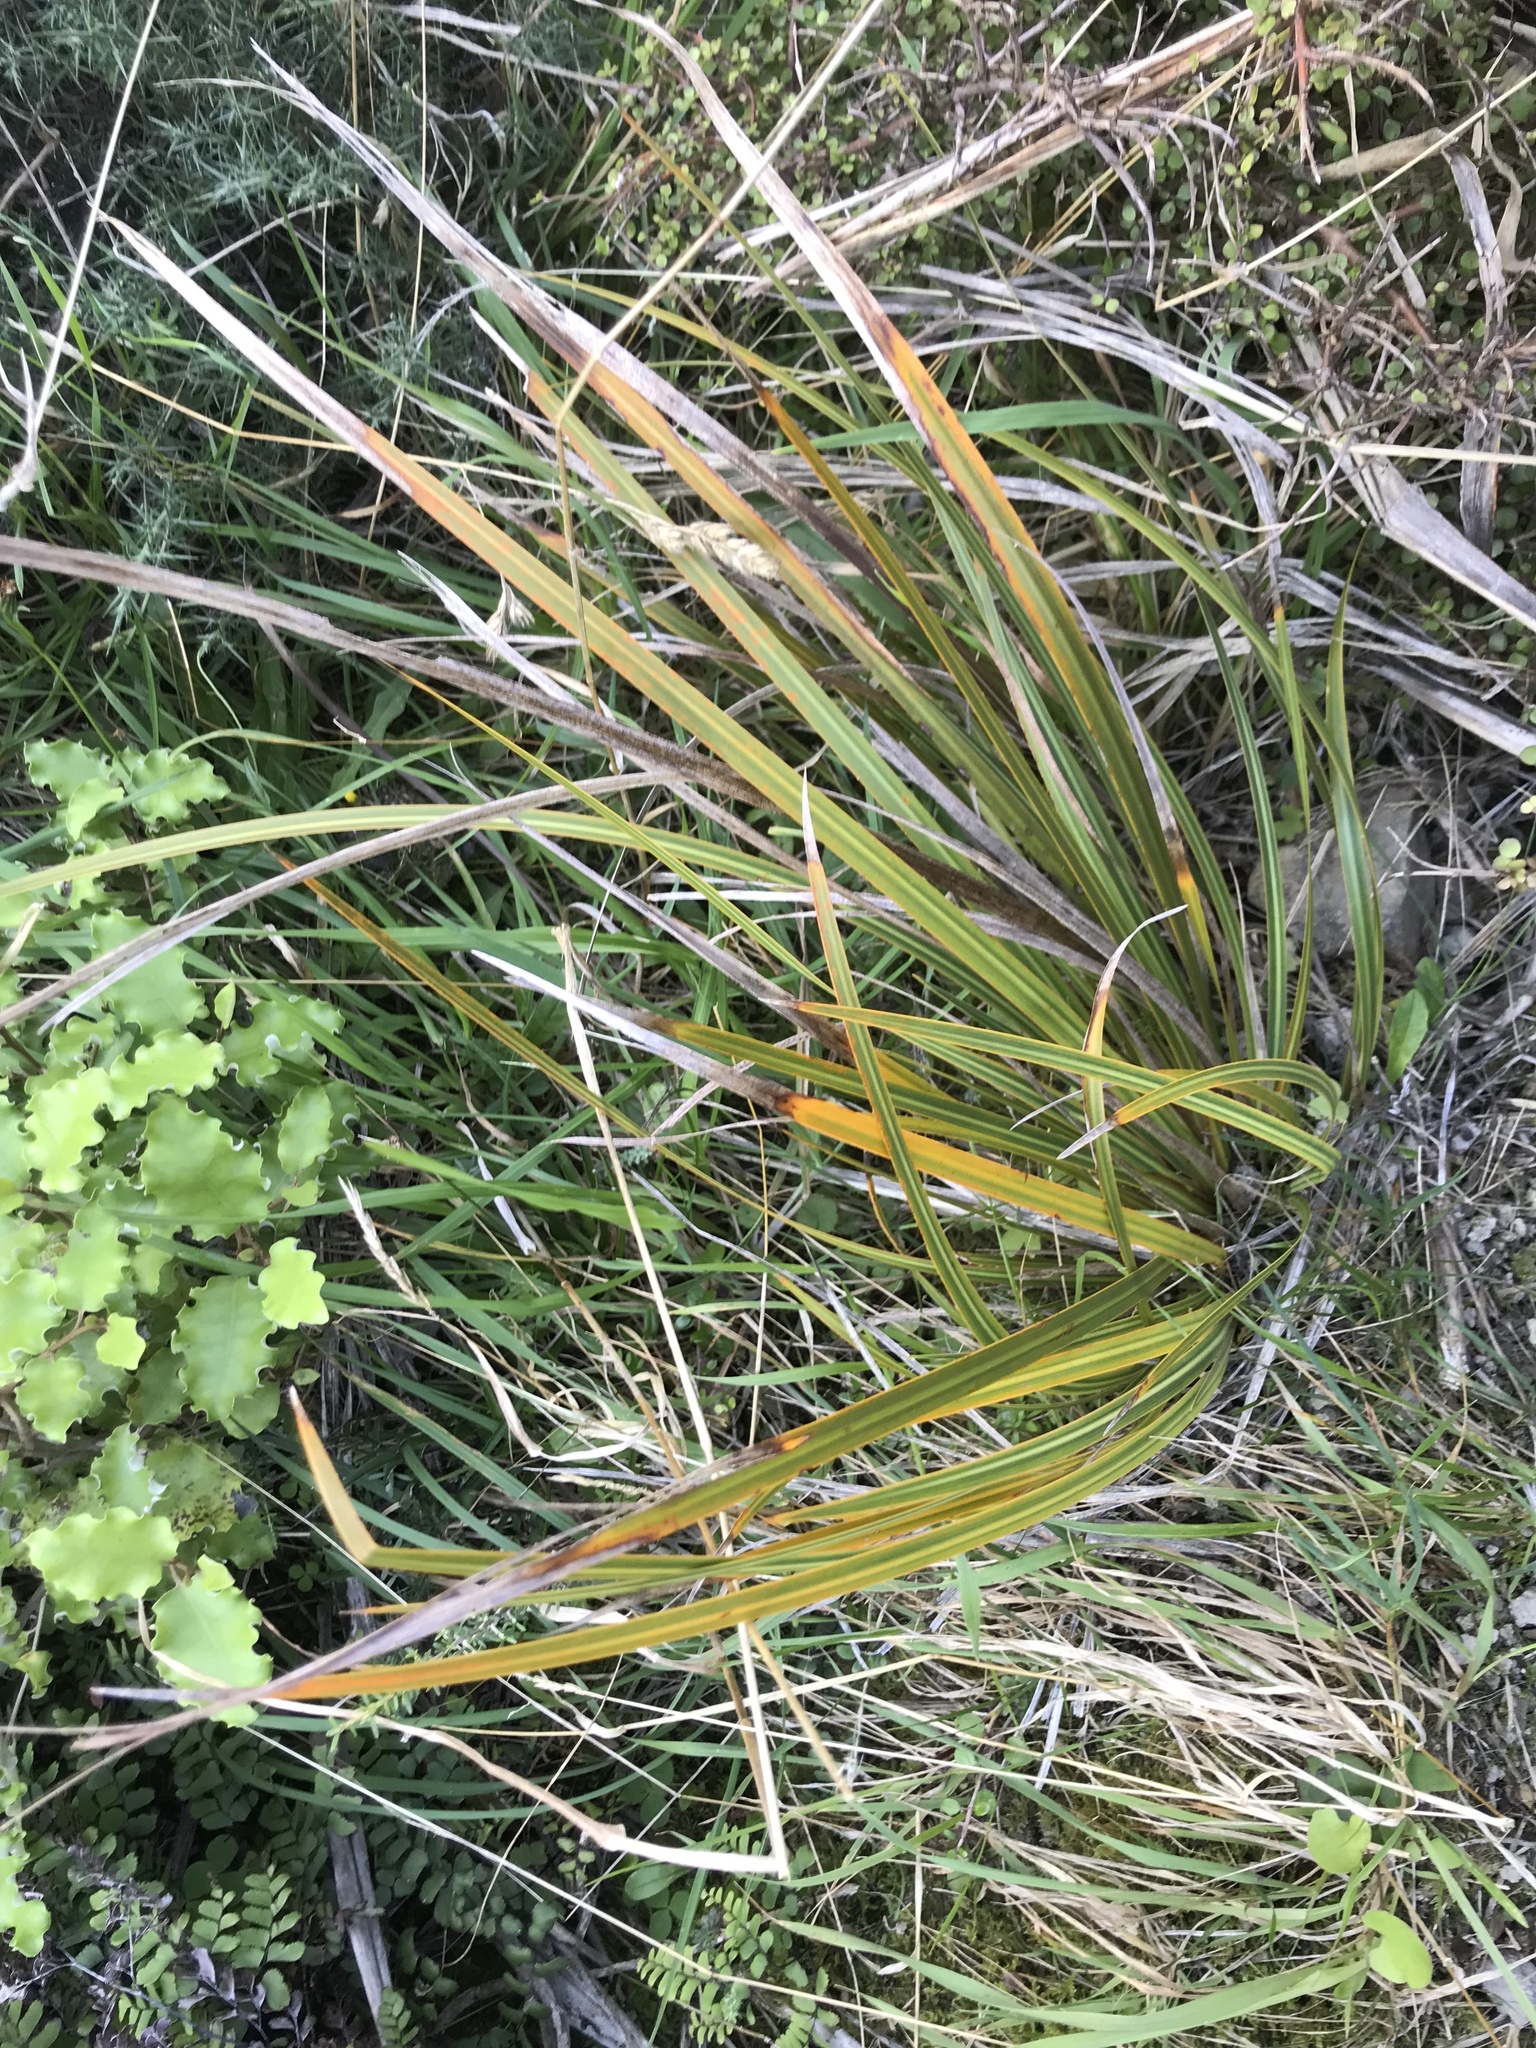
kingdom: Plantae
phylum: Tracheophyta
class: Liliopsida
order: Asparagales
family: Iridaceae
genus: Libertia
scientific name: Libertia ixioides
